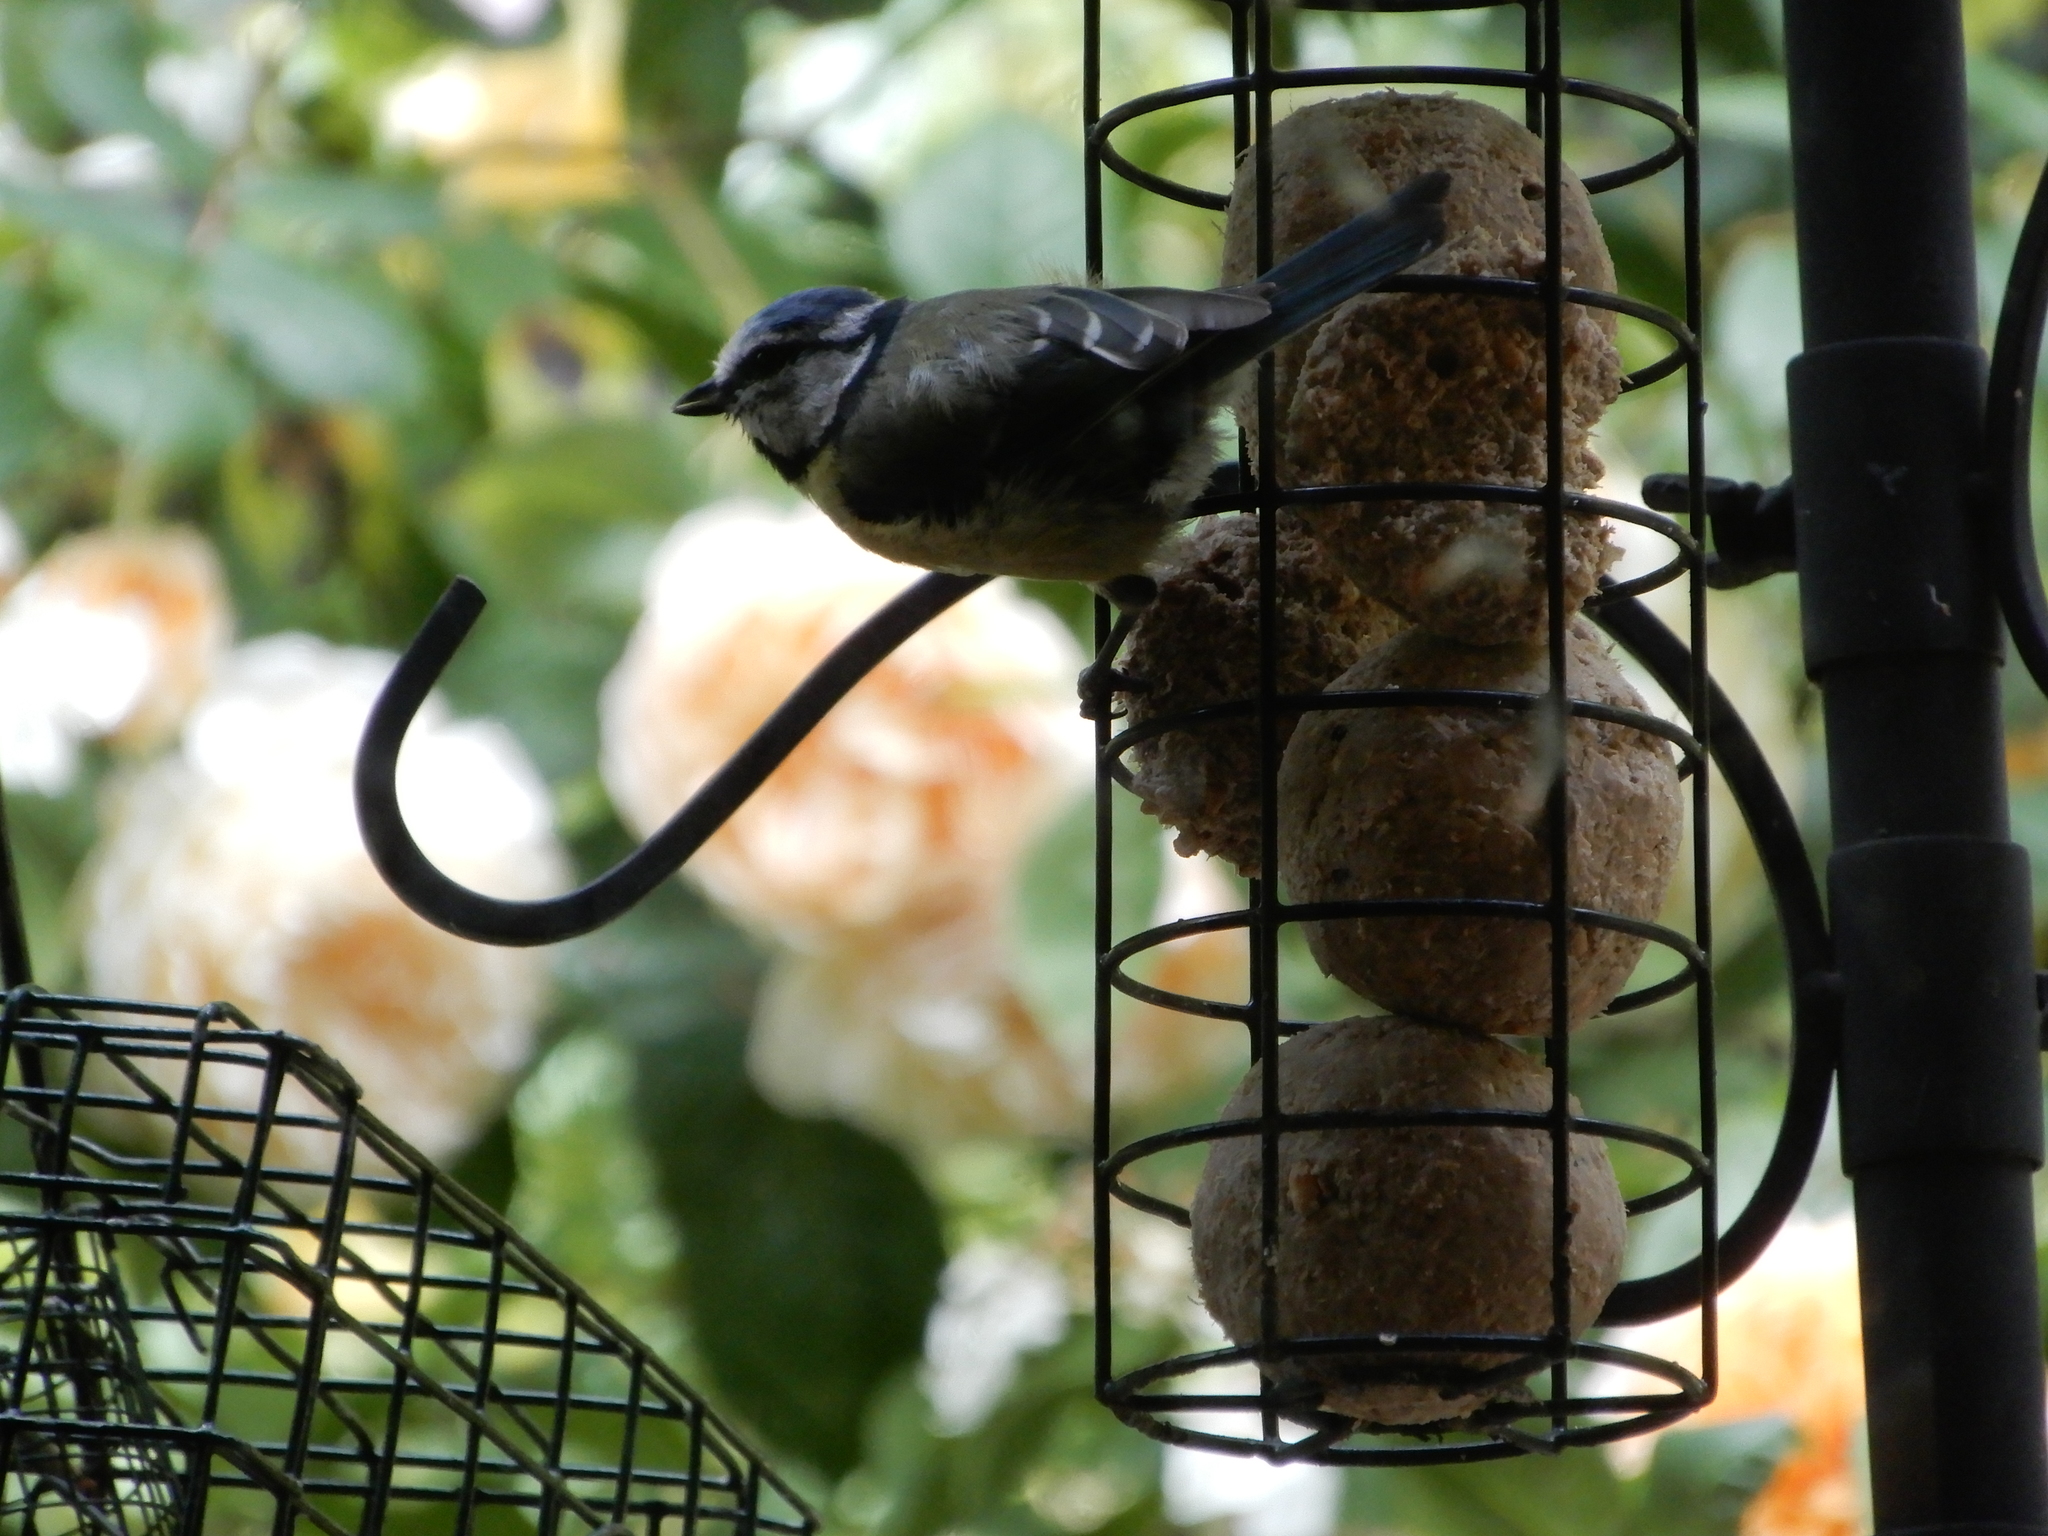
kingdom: Animalia
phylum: Chordata
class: Aves
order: Passeriformes
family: Paridae
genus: Cyanistes
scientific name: Cyanistes caeruleus
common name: Eurasian blue tit
